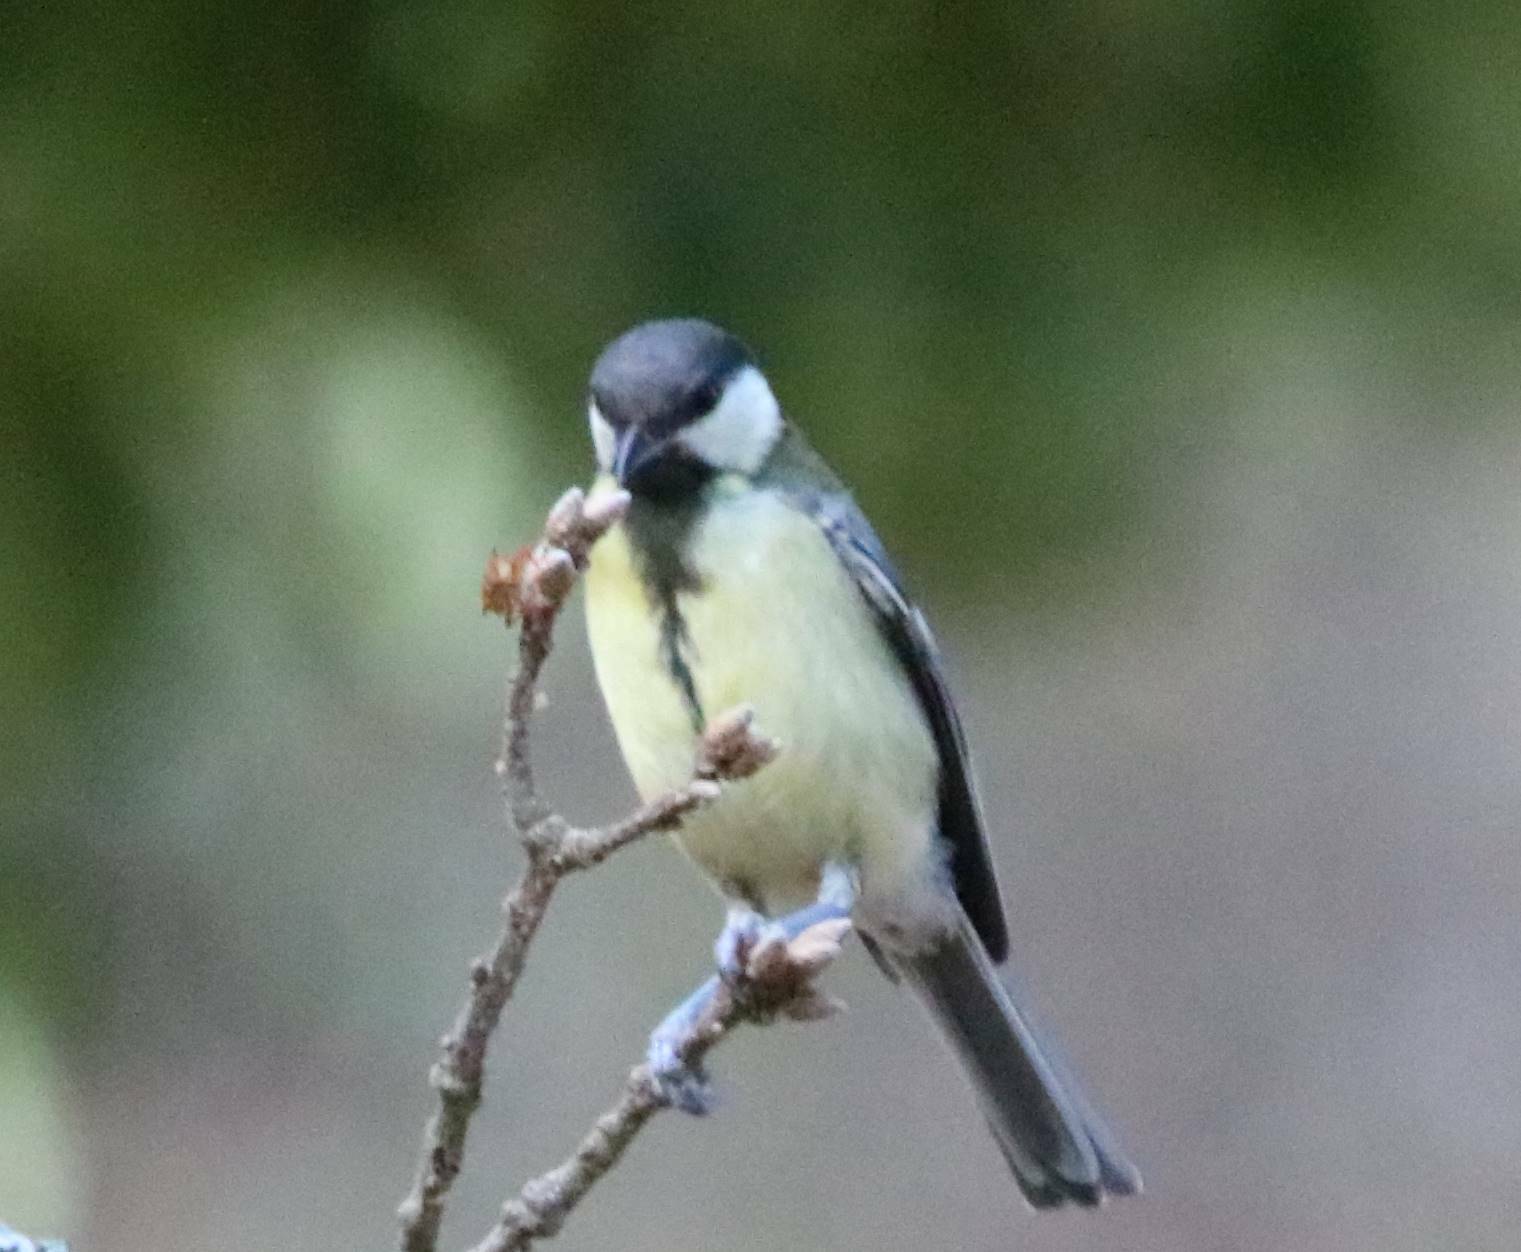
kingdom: Animalia
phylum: Chordata
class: Aves
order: Passeriformes
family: Paridae
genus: Parus
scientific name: Parus major
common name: Great tit
